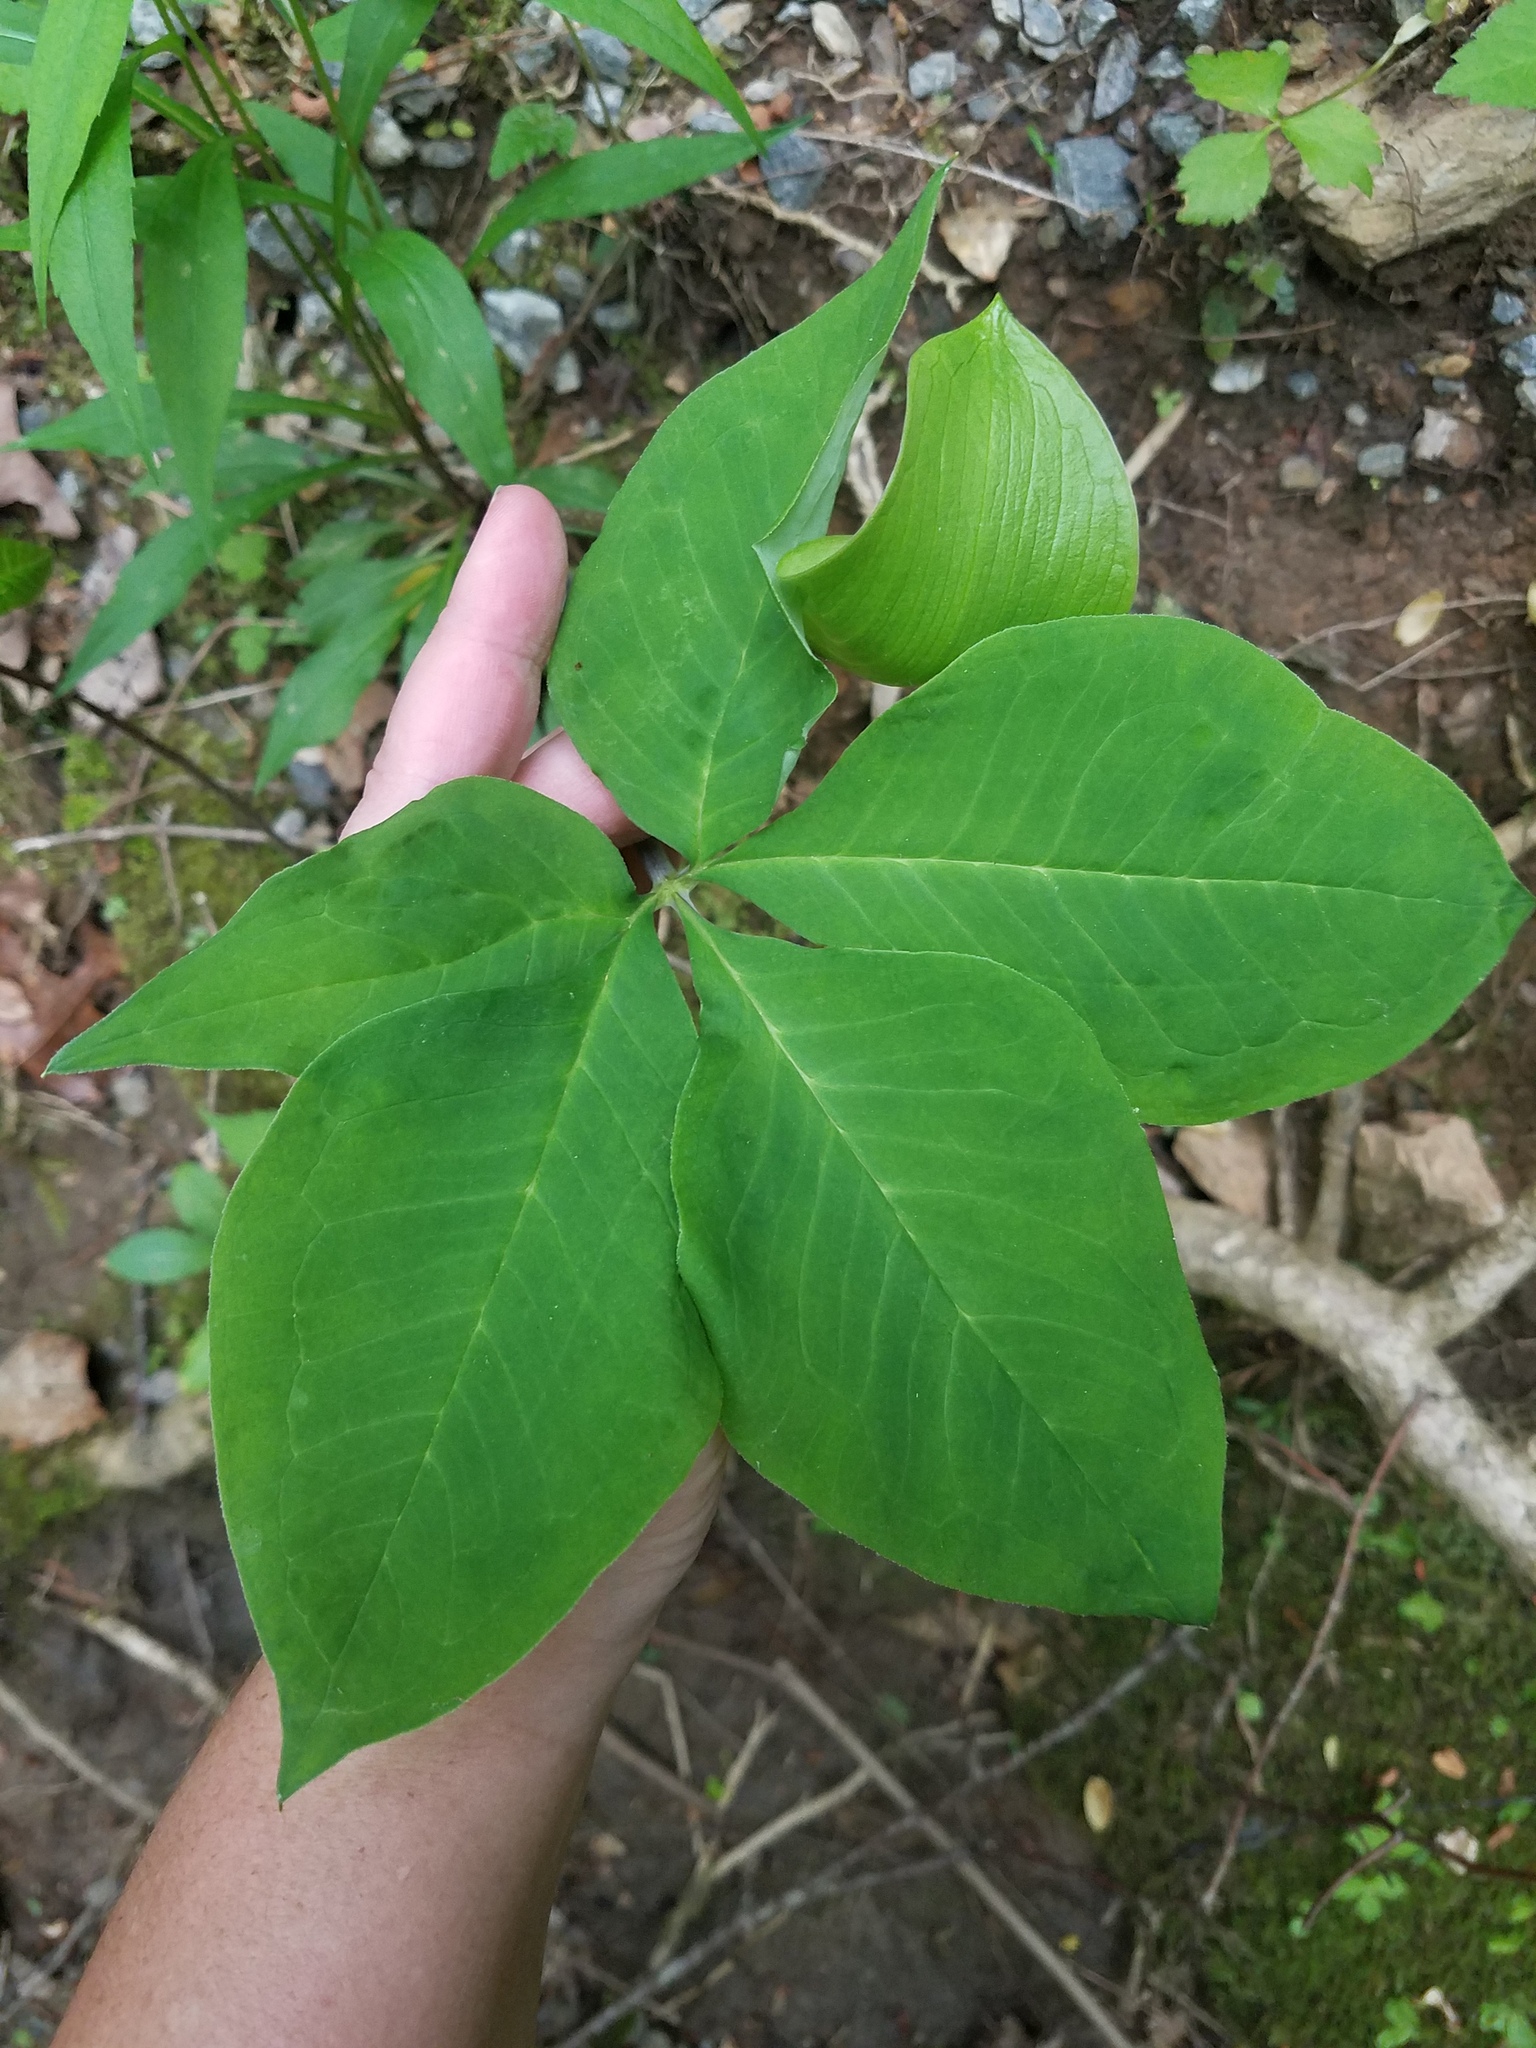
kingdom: Plantae
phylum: Tracheophyta
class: Liliopsida
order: Alismatales
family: Araceae
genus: Arisaema
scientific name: Arisaema quinatum
